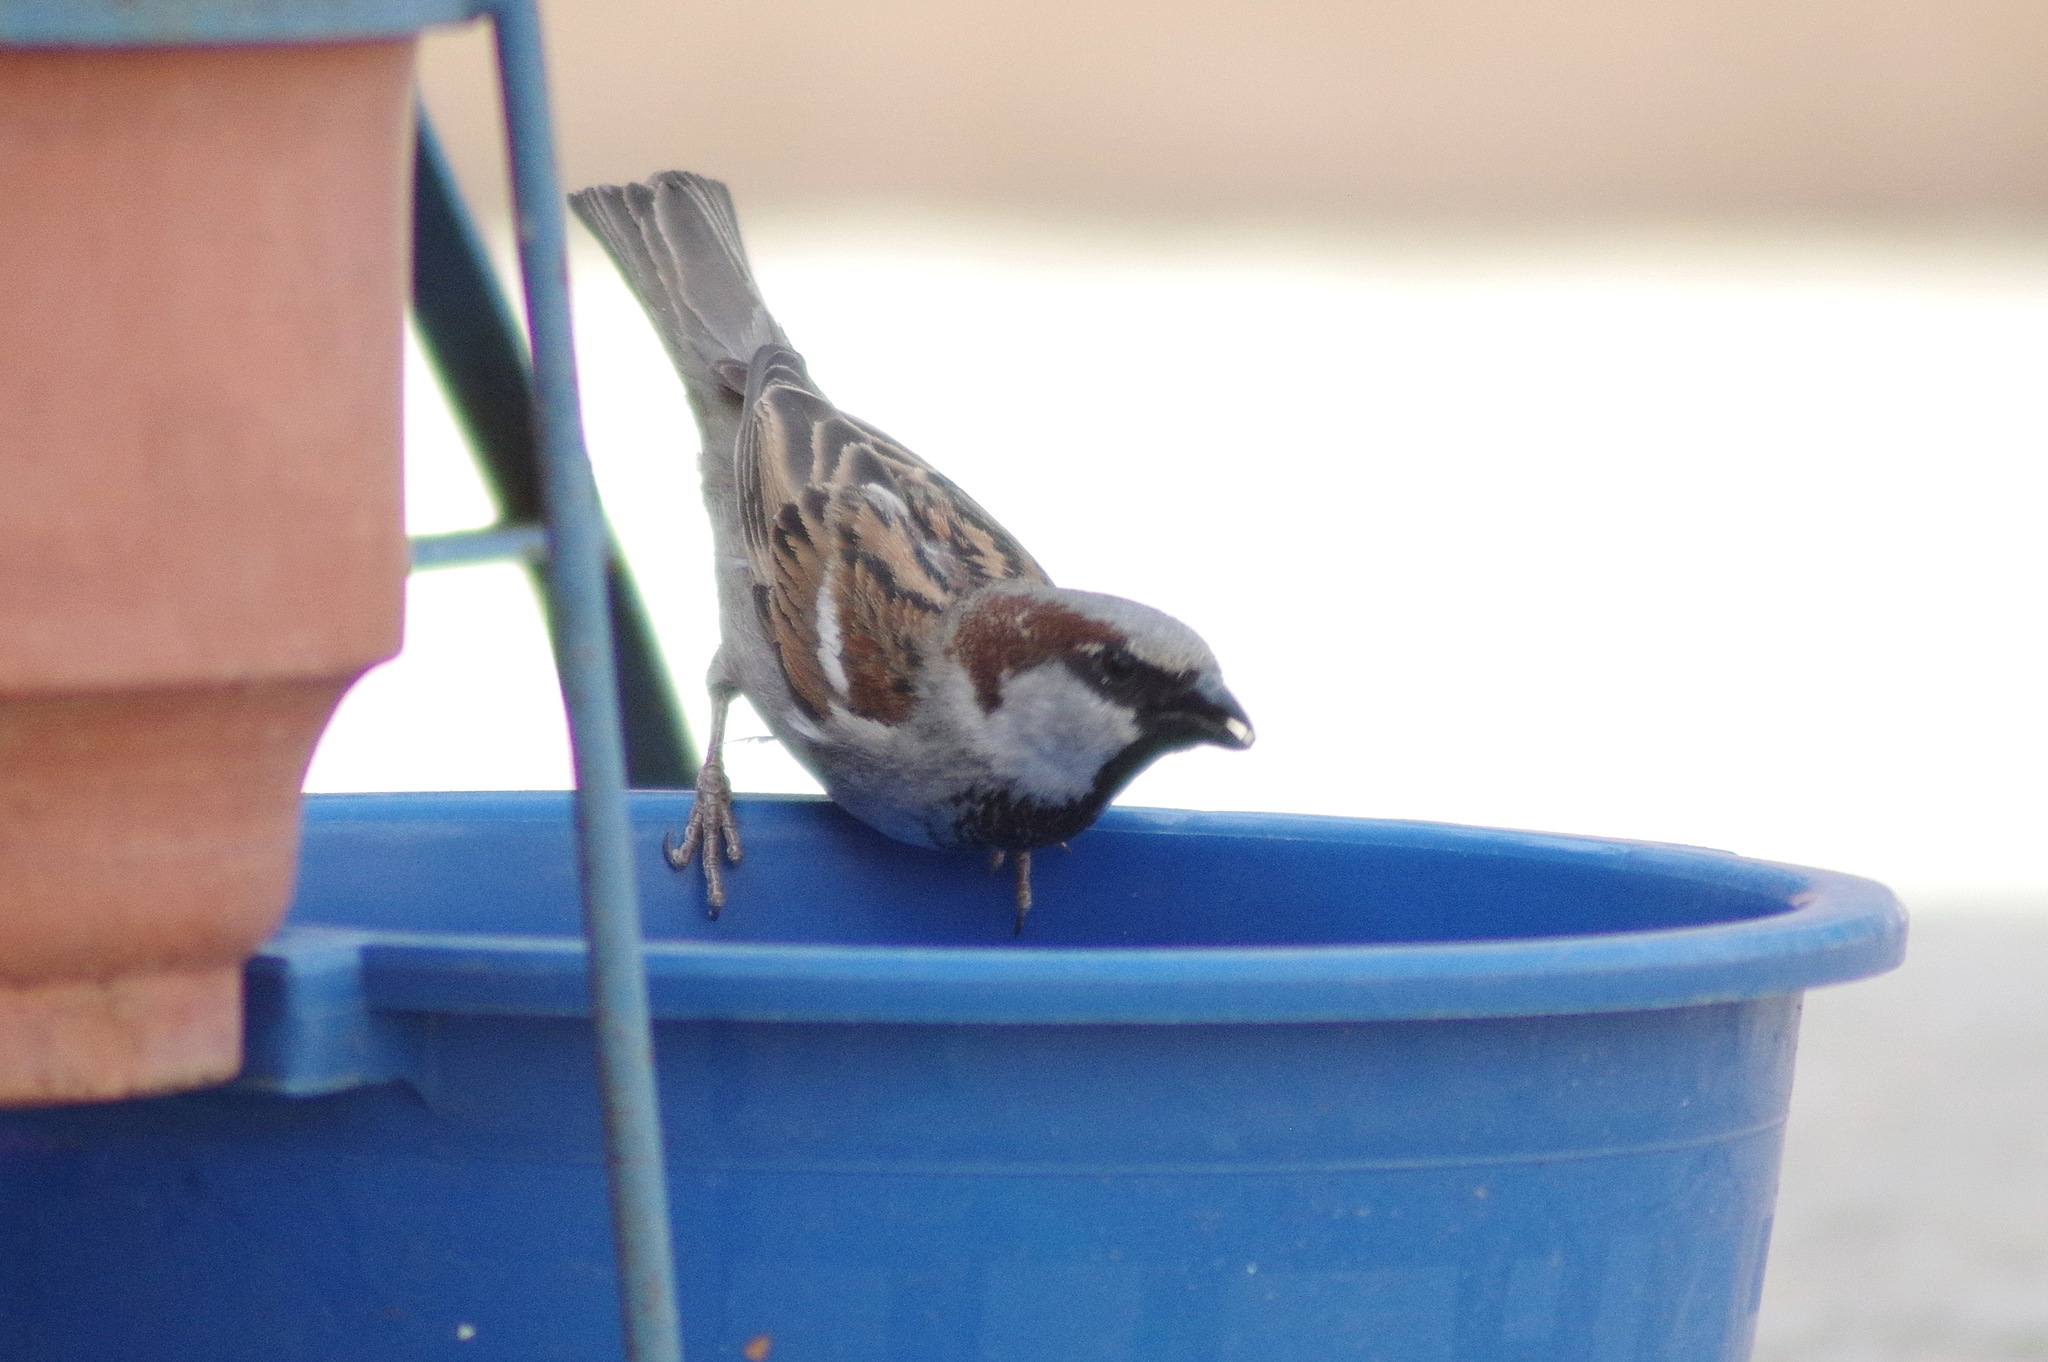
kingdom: Animalia
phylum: Chordata
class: Aves
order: Passeriformes
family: Passeridae
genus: Passer
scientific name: Passer domesticus
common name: House sparrow
